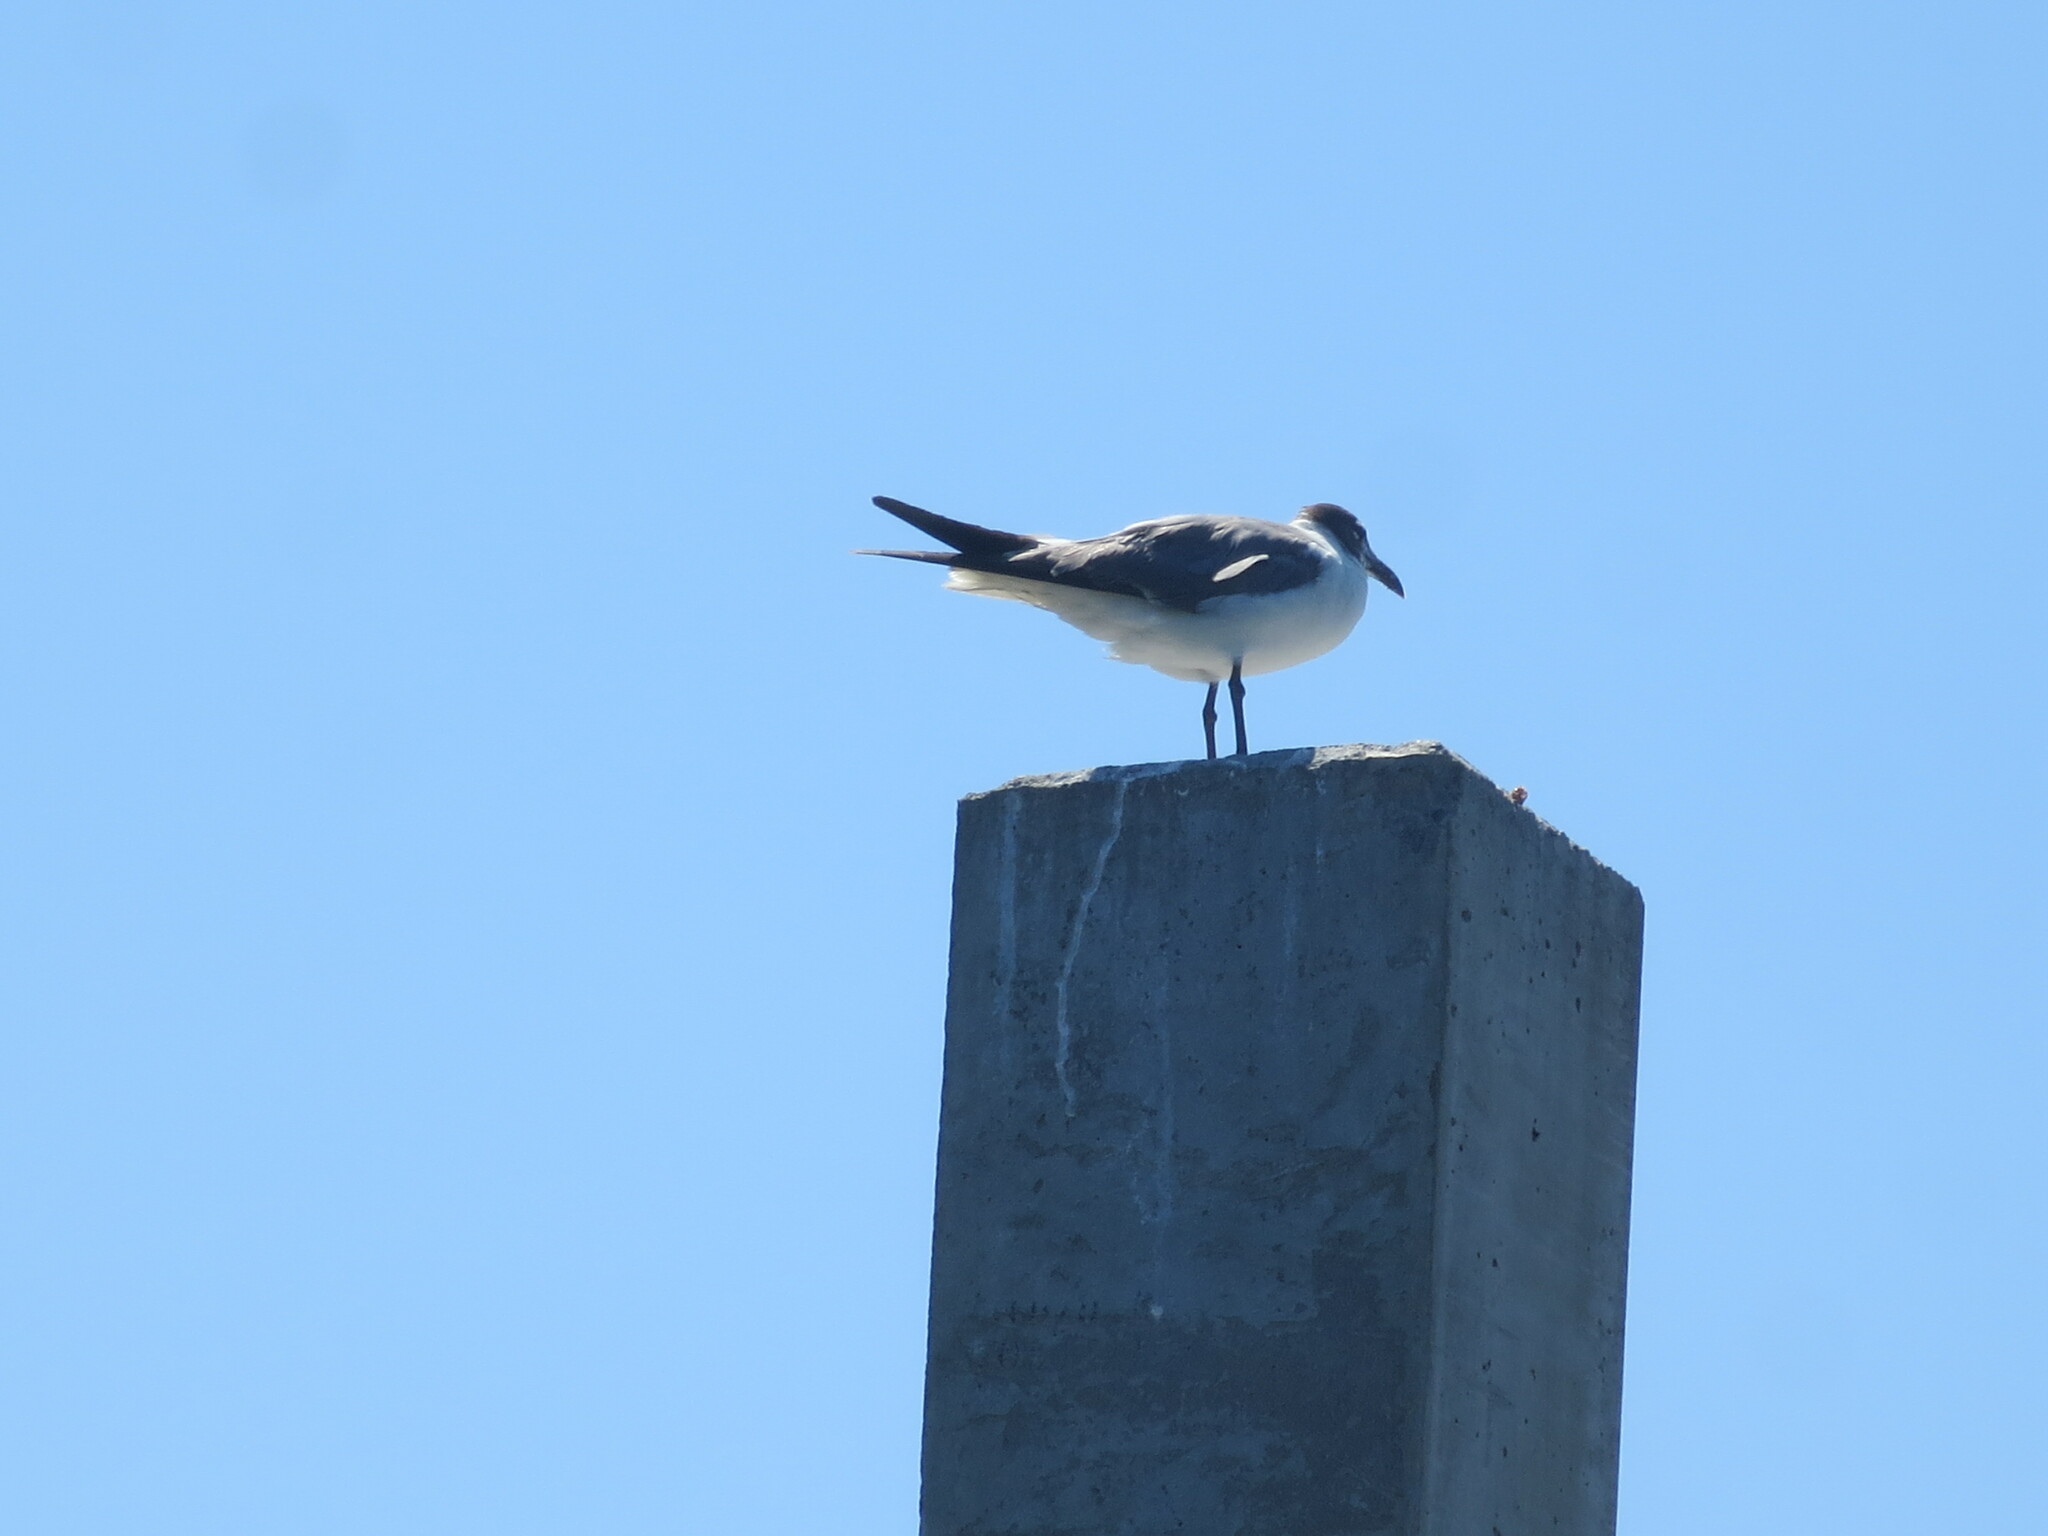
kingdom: Animalia
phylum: Chordata
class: Aves
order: Charadriiformes
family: Laridae
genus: Leucophaeus
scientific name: Leucophaeus atricilla
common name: Laughing gull
